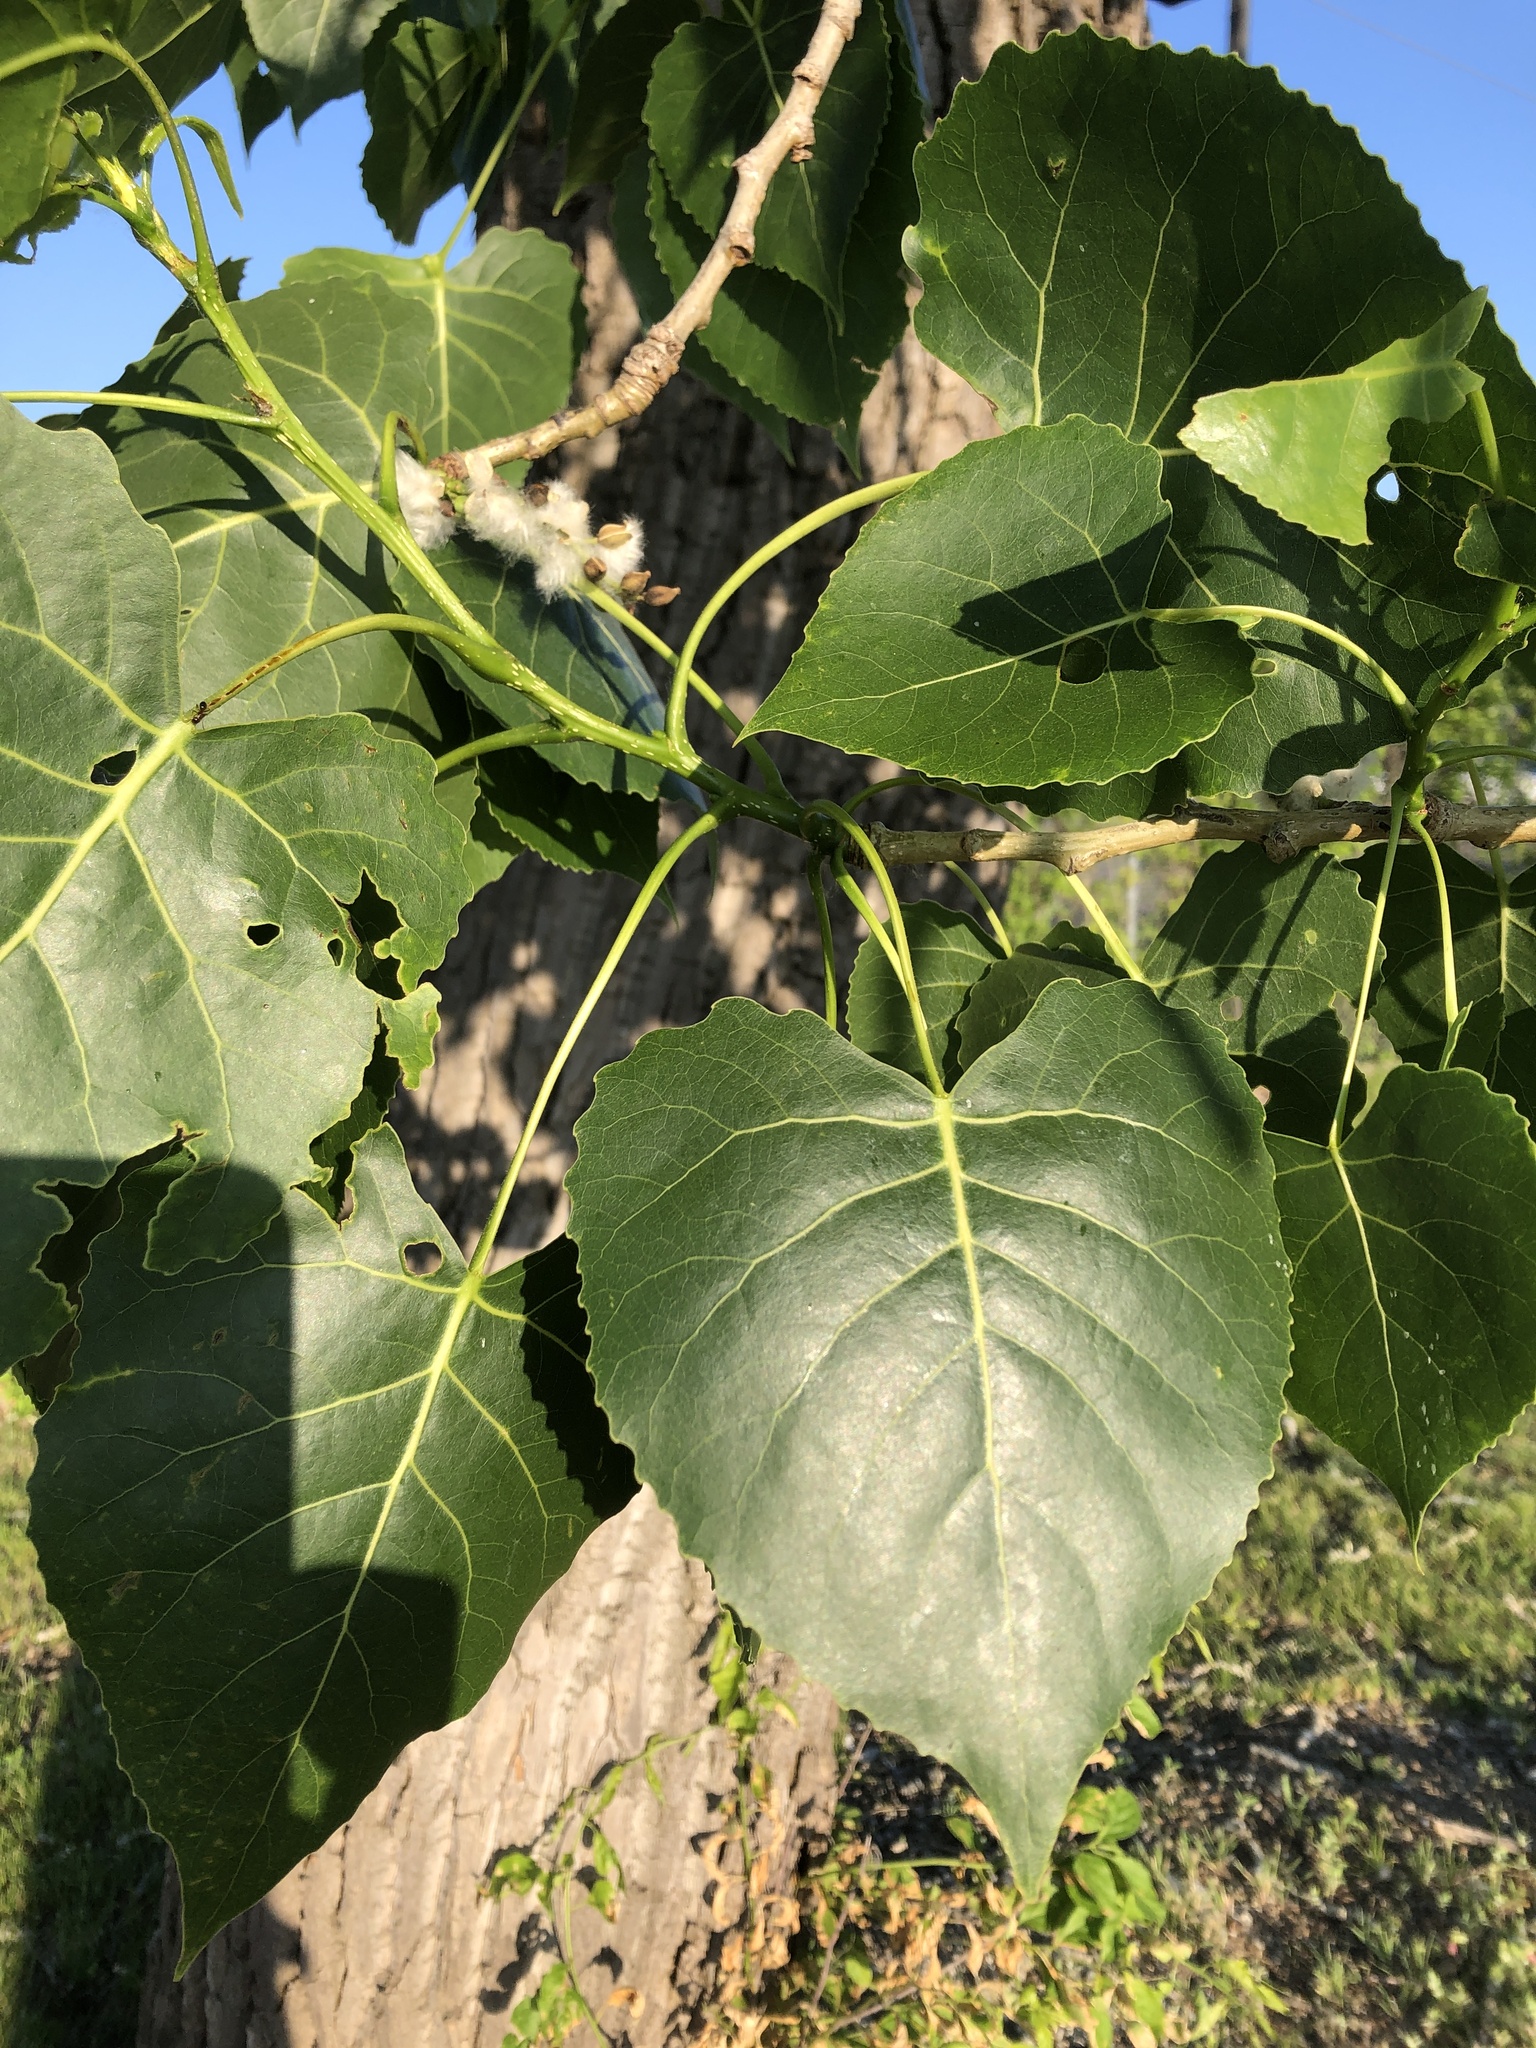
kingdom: Plantae
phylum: Tracheophyta
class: Magnoliopsida
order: Malpighiales
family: Salicaceae
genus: Populus
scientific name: Populus deltoides
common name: Eastern cottonwood
